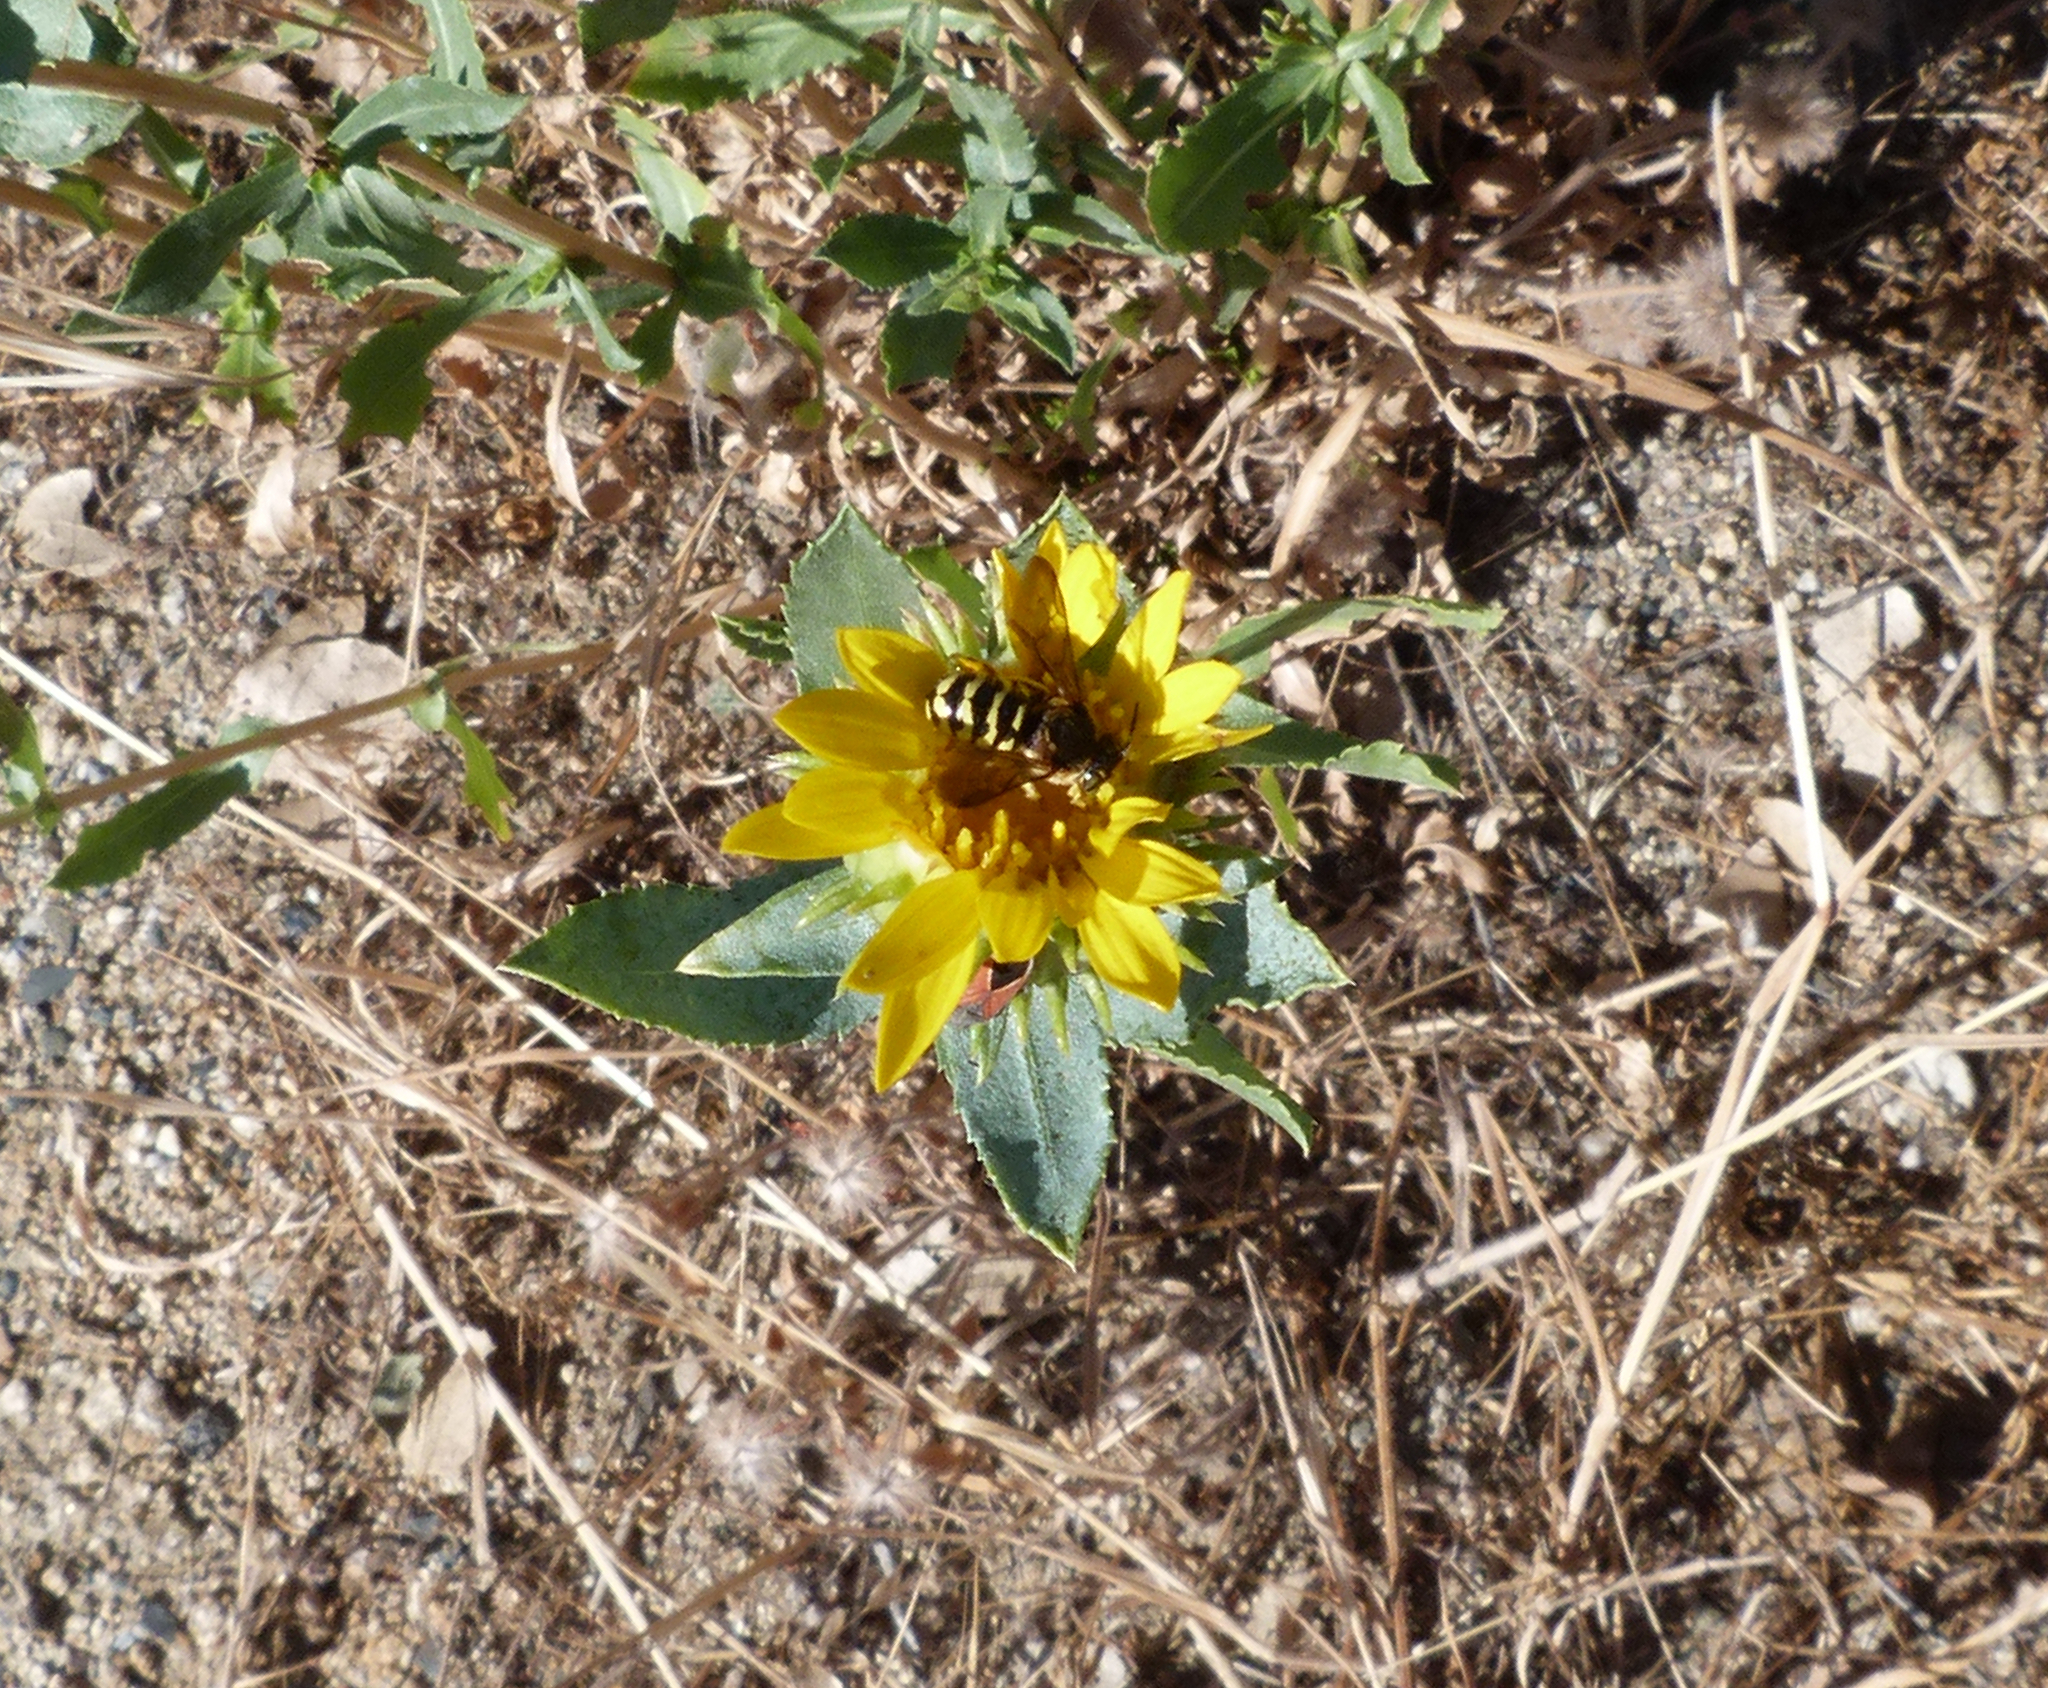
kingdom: Animalia
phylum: Arthropoda
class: Insecta
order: Hymenoptera
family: Megachilidae
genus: Dianthidium
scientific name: Dianthidium
